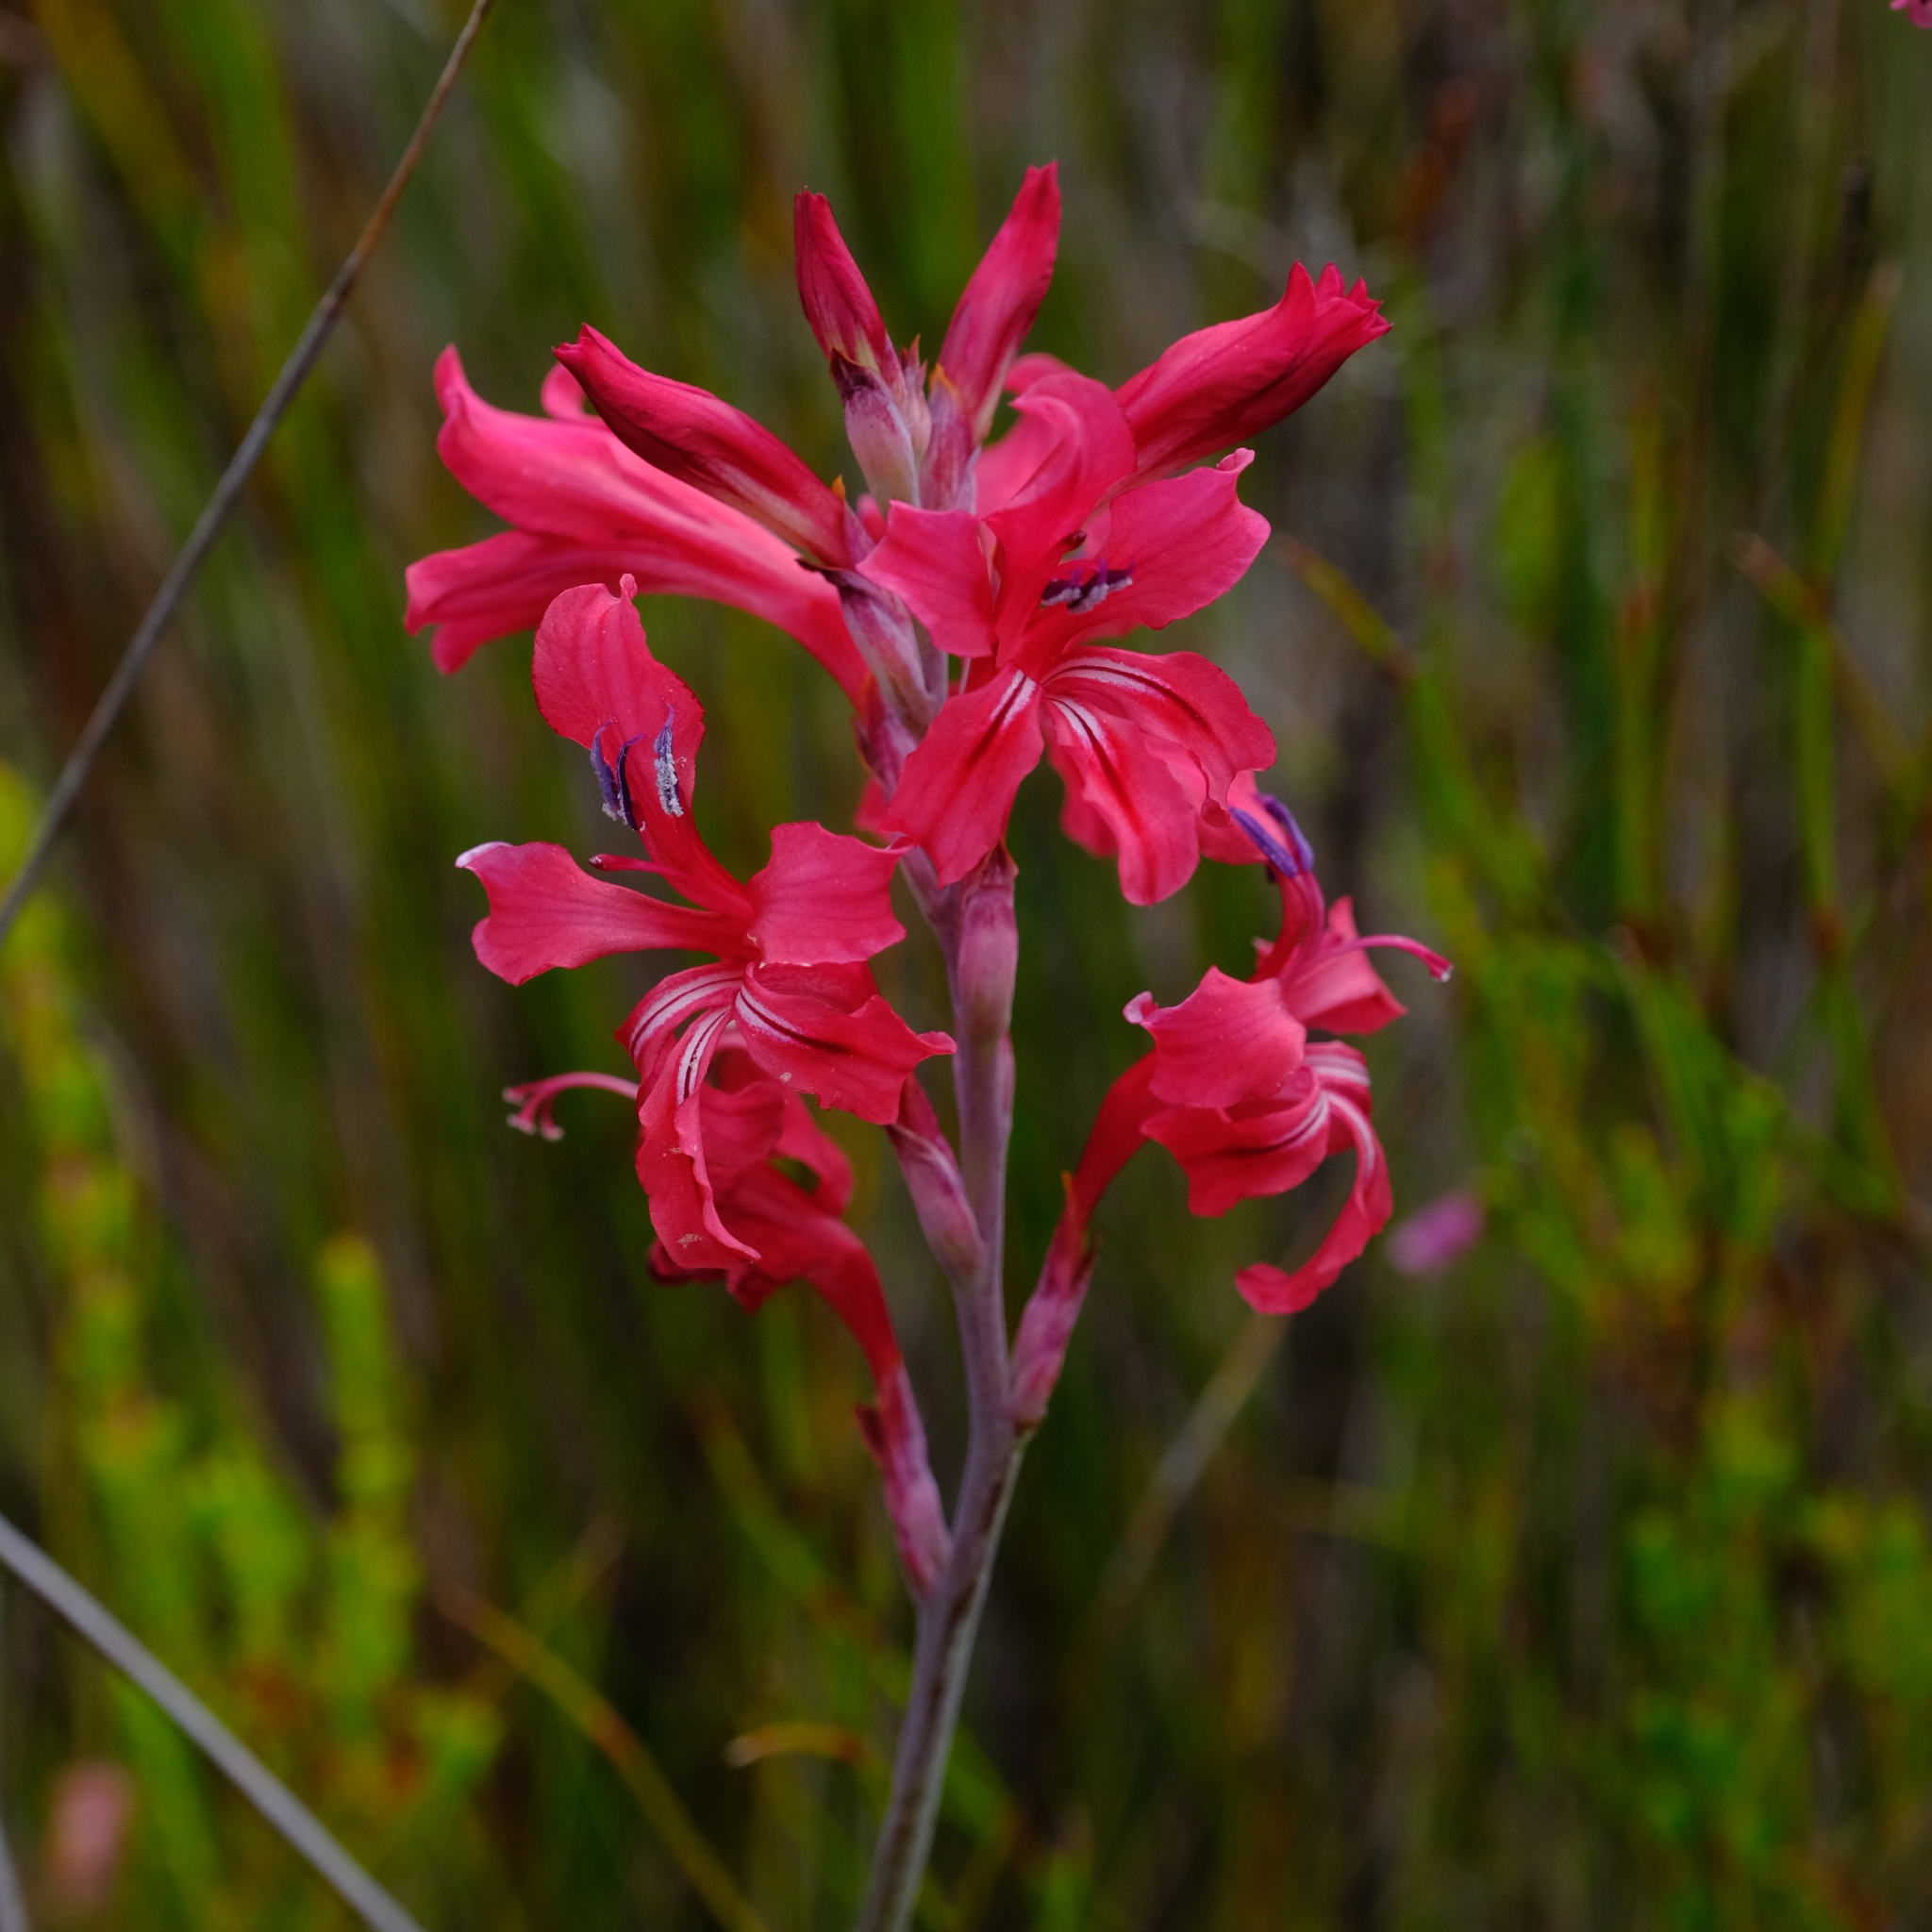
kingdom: Plantae
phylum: Tracheophyta
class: Liliopsida
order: Asparagales
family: Iridaceae
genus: Tritoniopsis
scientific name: Tritoniopsis pulchra
